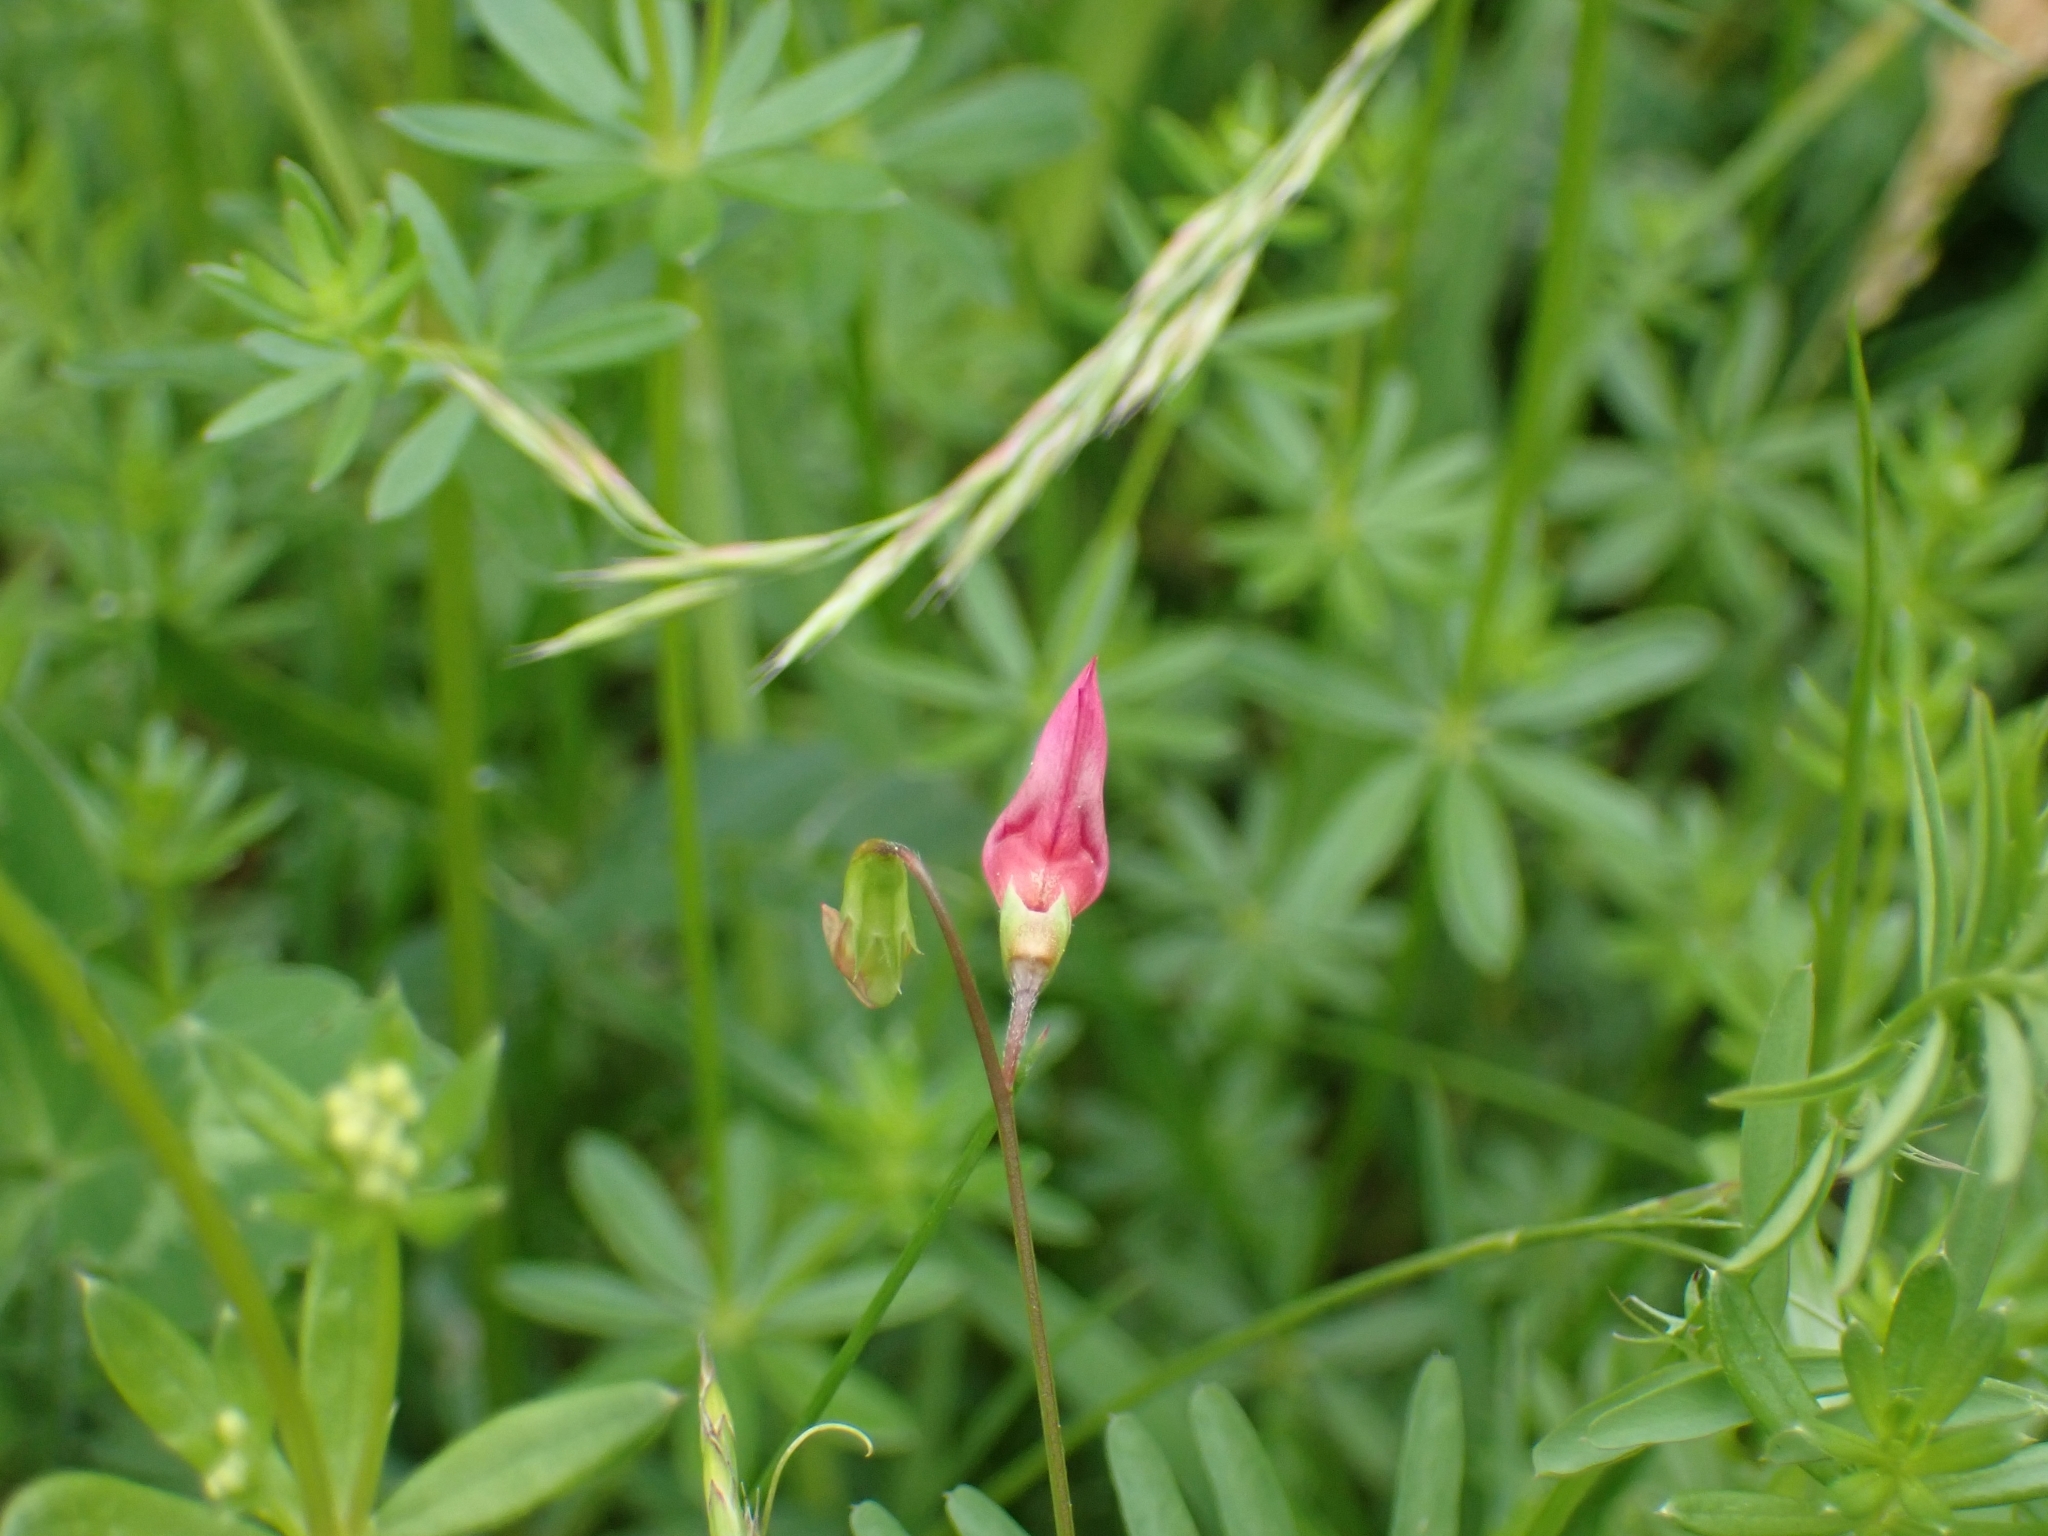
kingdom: Plantae
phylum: Tracheophyta
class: Magnoliopsida
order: Fabales
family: Fabaceae
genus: Lathyrus
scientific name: Lathyrus nissolia
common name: Grass vetchling
